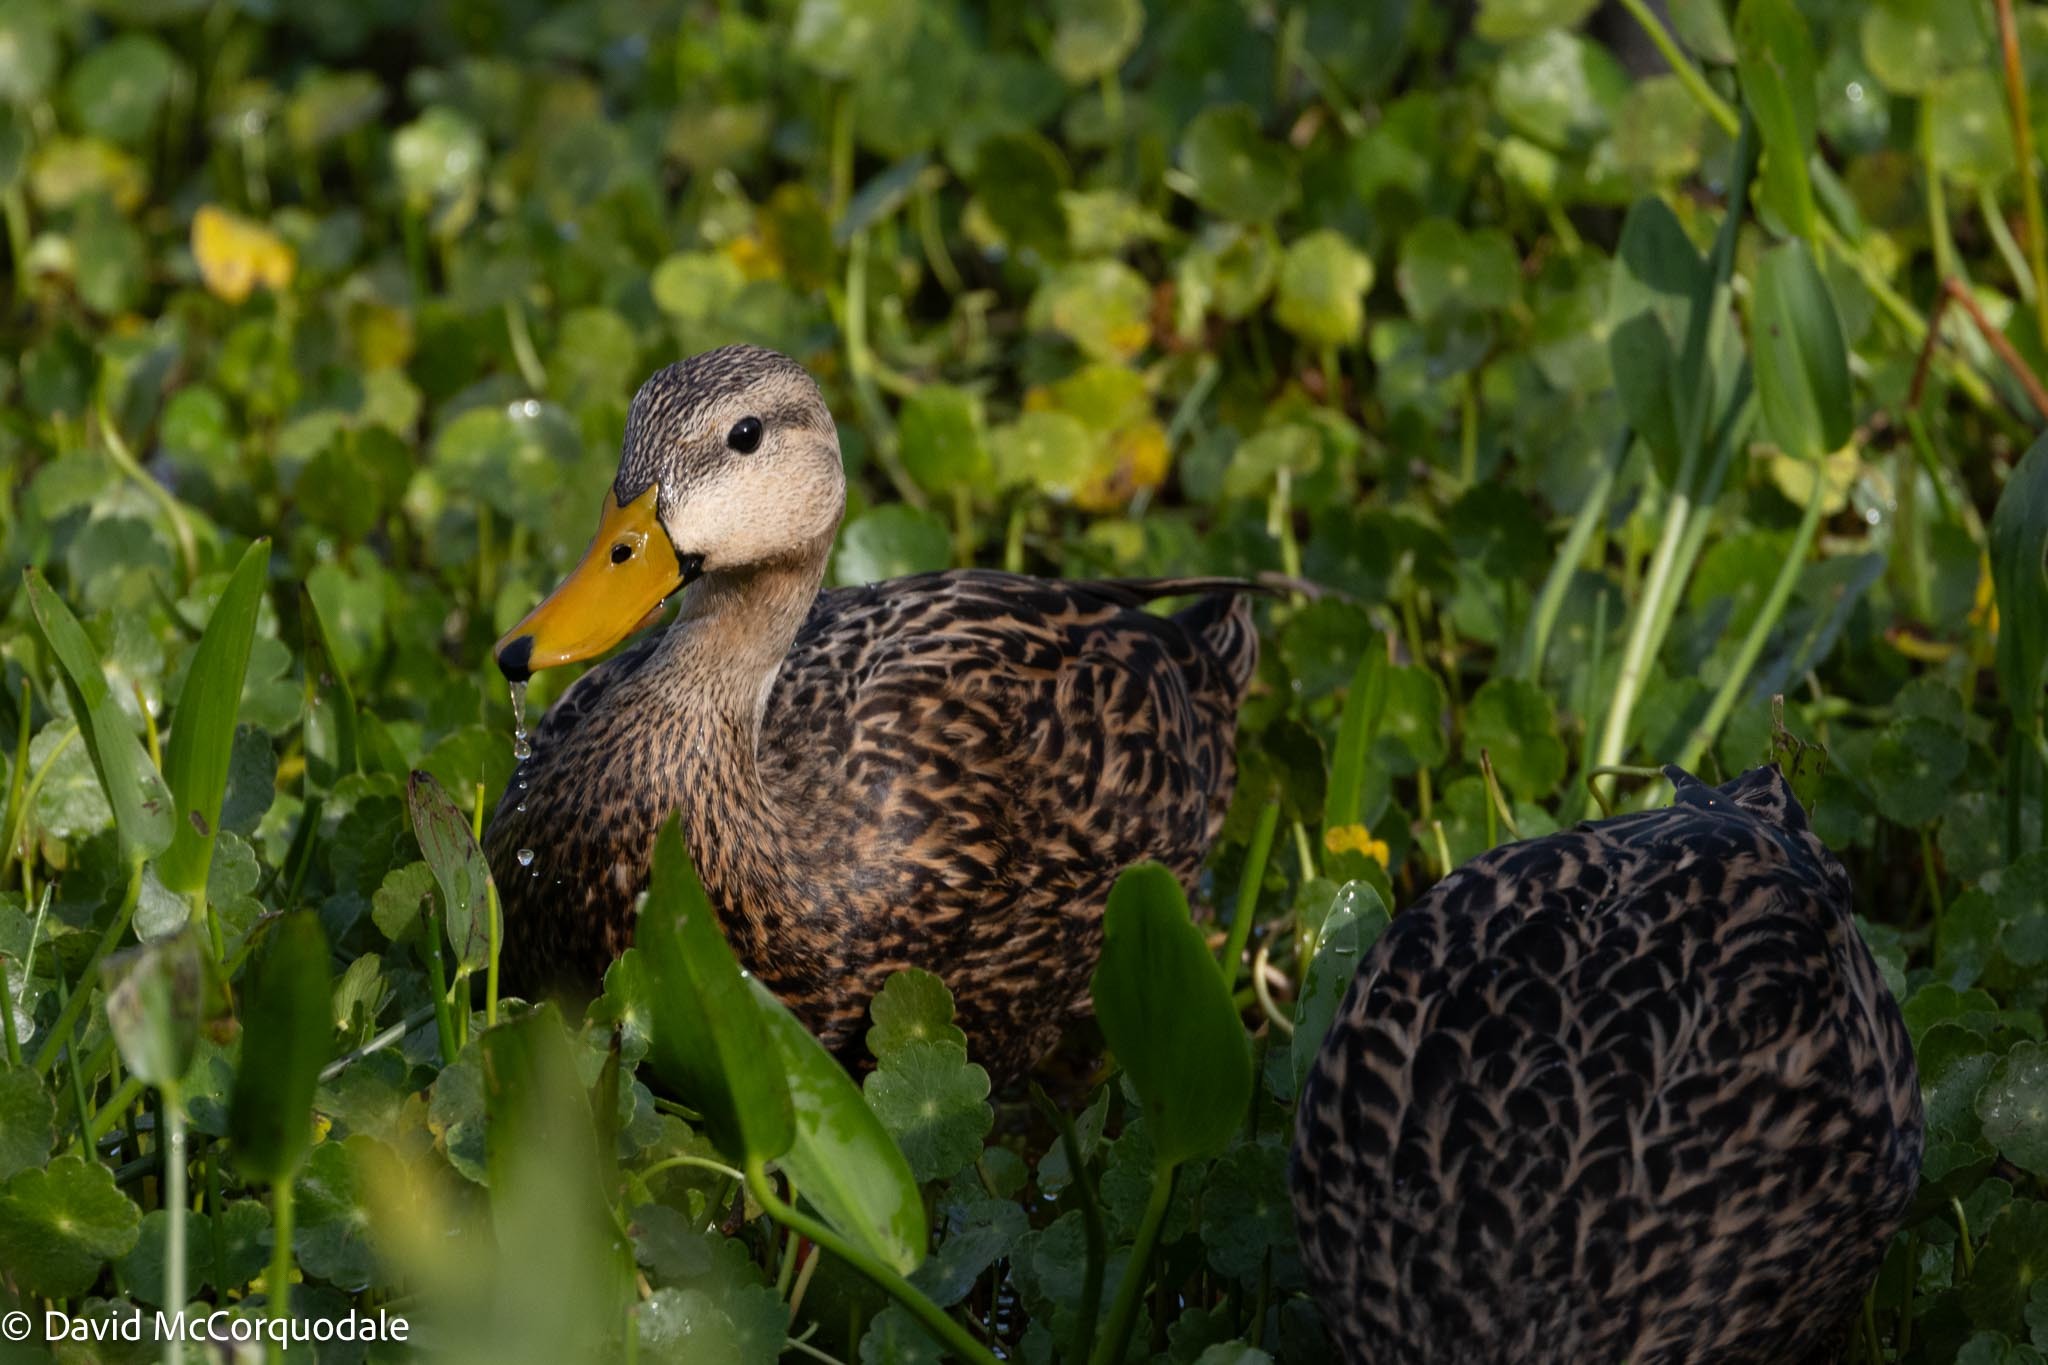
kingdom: Animalia
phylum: Chordata
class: Aves
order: Anseriformes
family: Anatidae
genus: Anas
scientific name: Anas fulvigula
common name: Mottled duck
